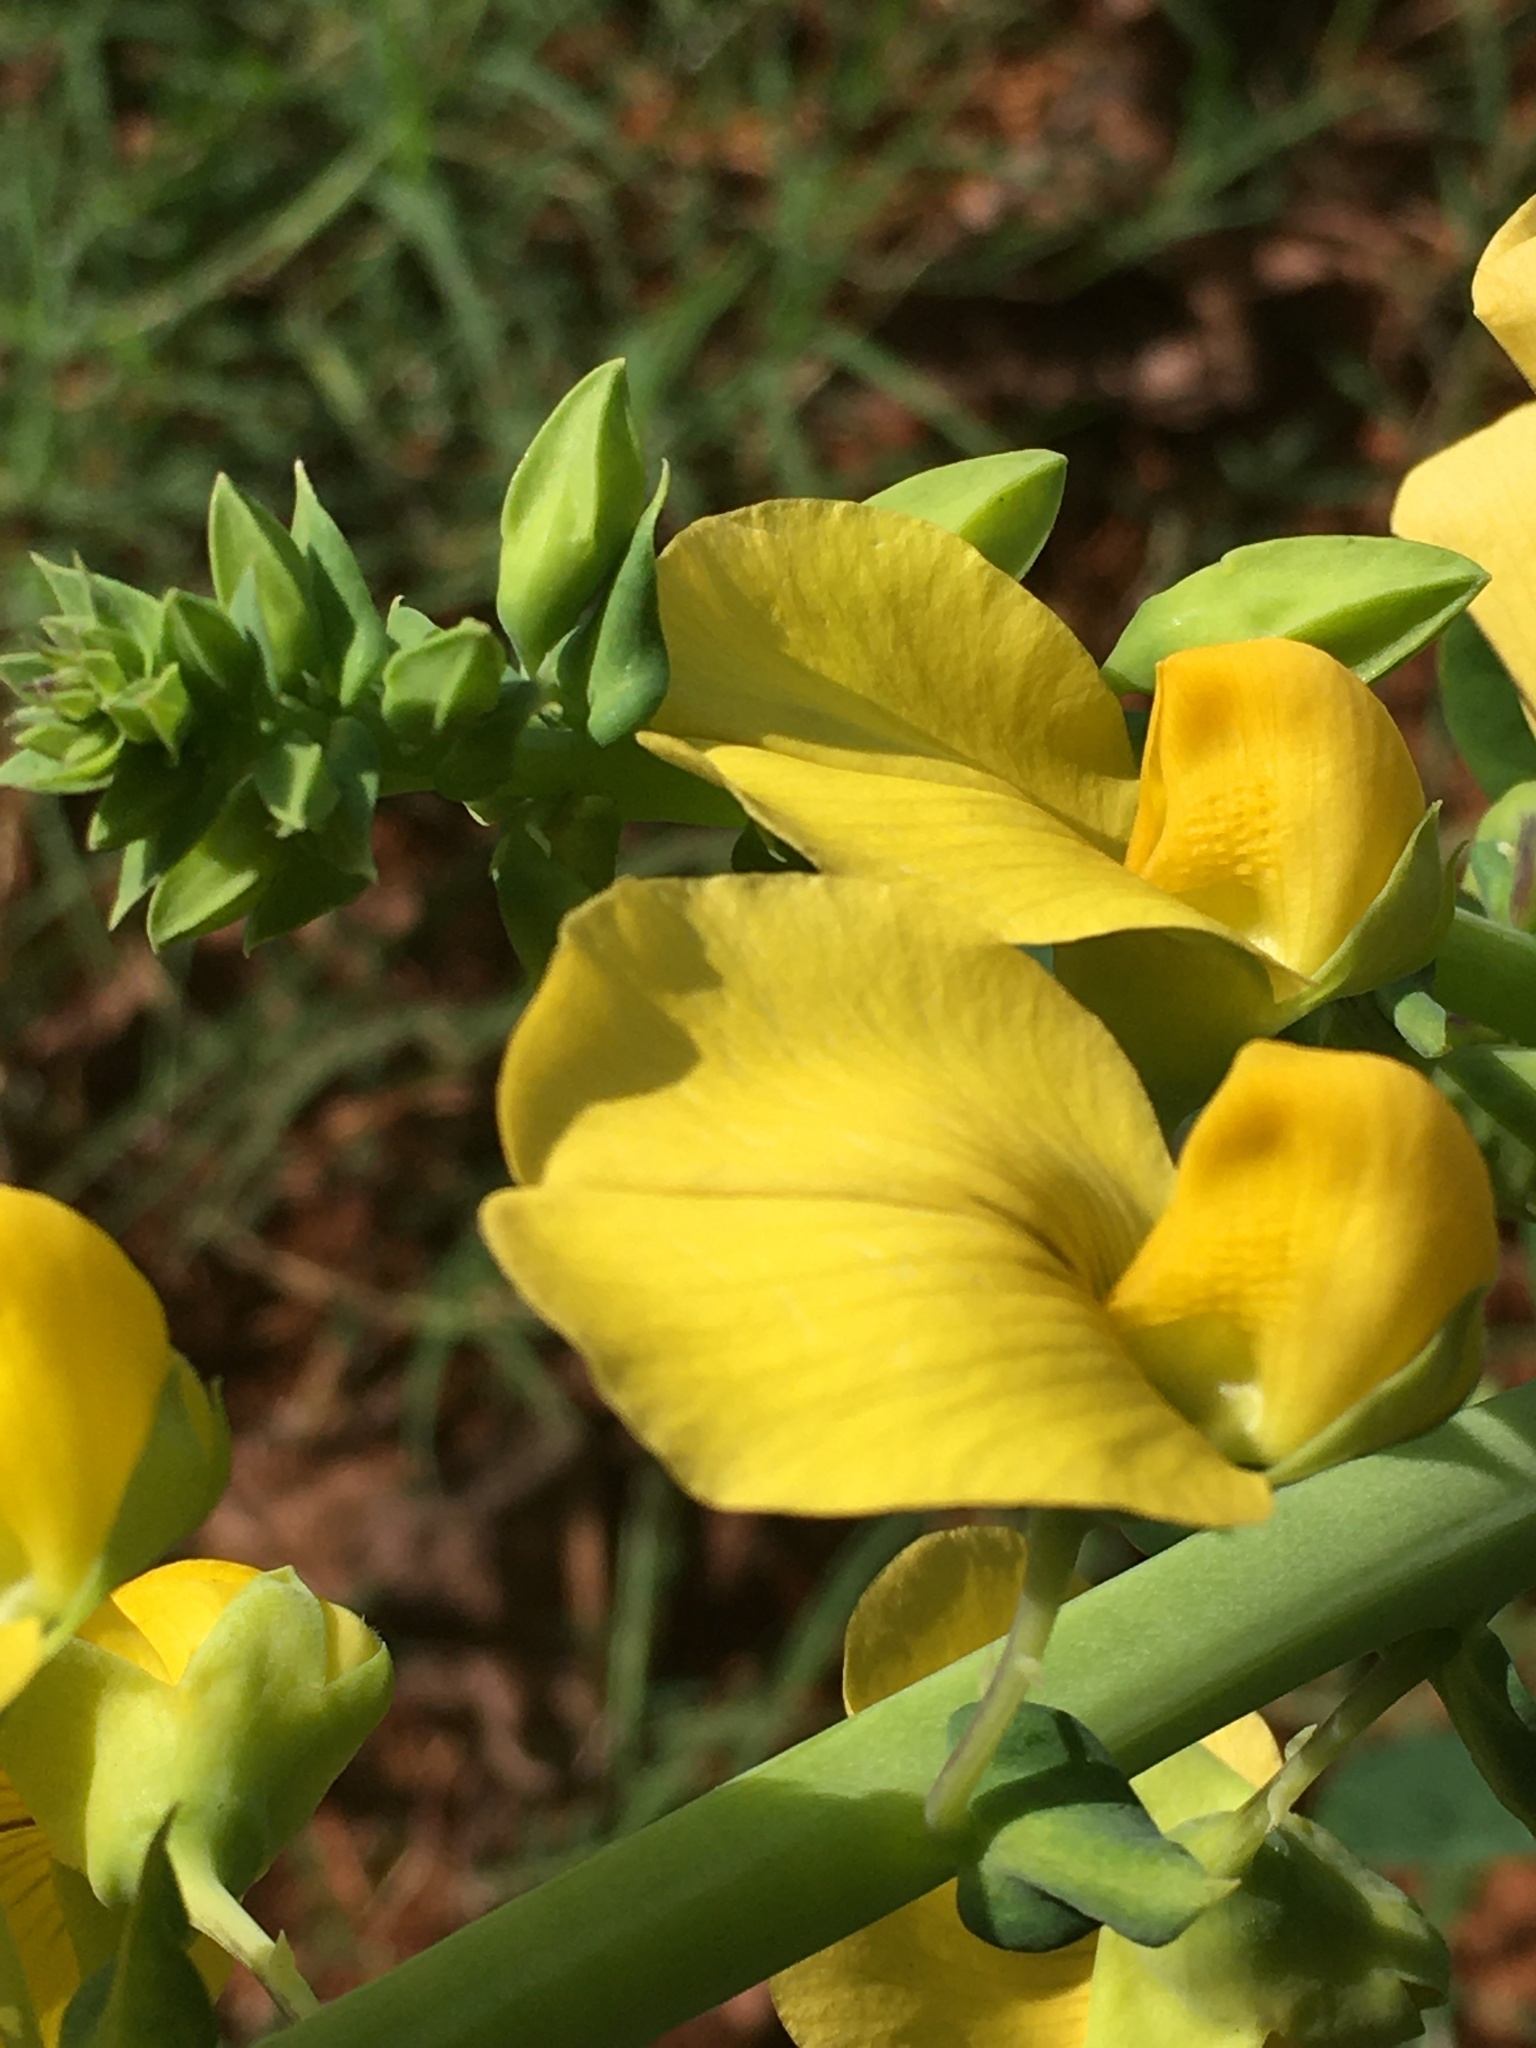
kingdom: Plantae
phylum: Tracheophyta
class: Magnoliopsida
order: Fabales
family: Fabaceae
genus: Crotalaria
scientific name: Crotalaria spectabilis
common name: Showy rattlebox
